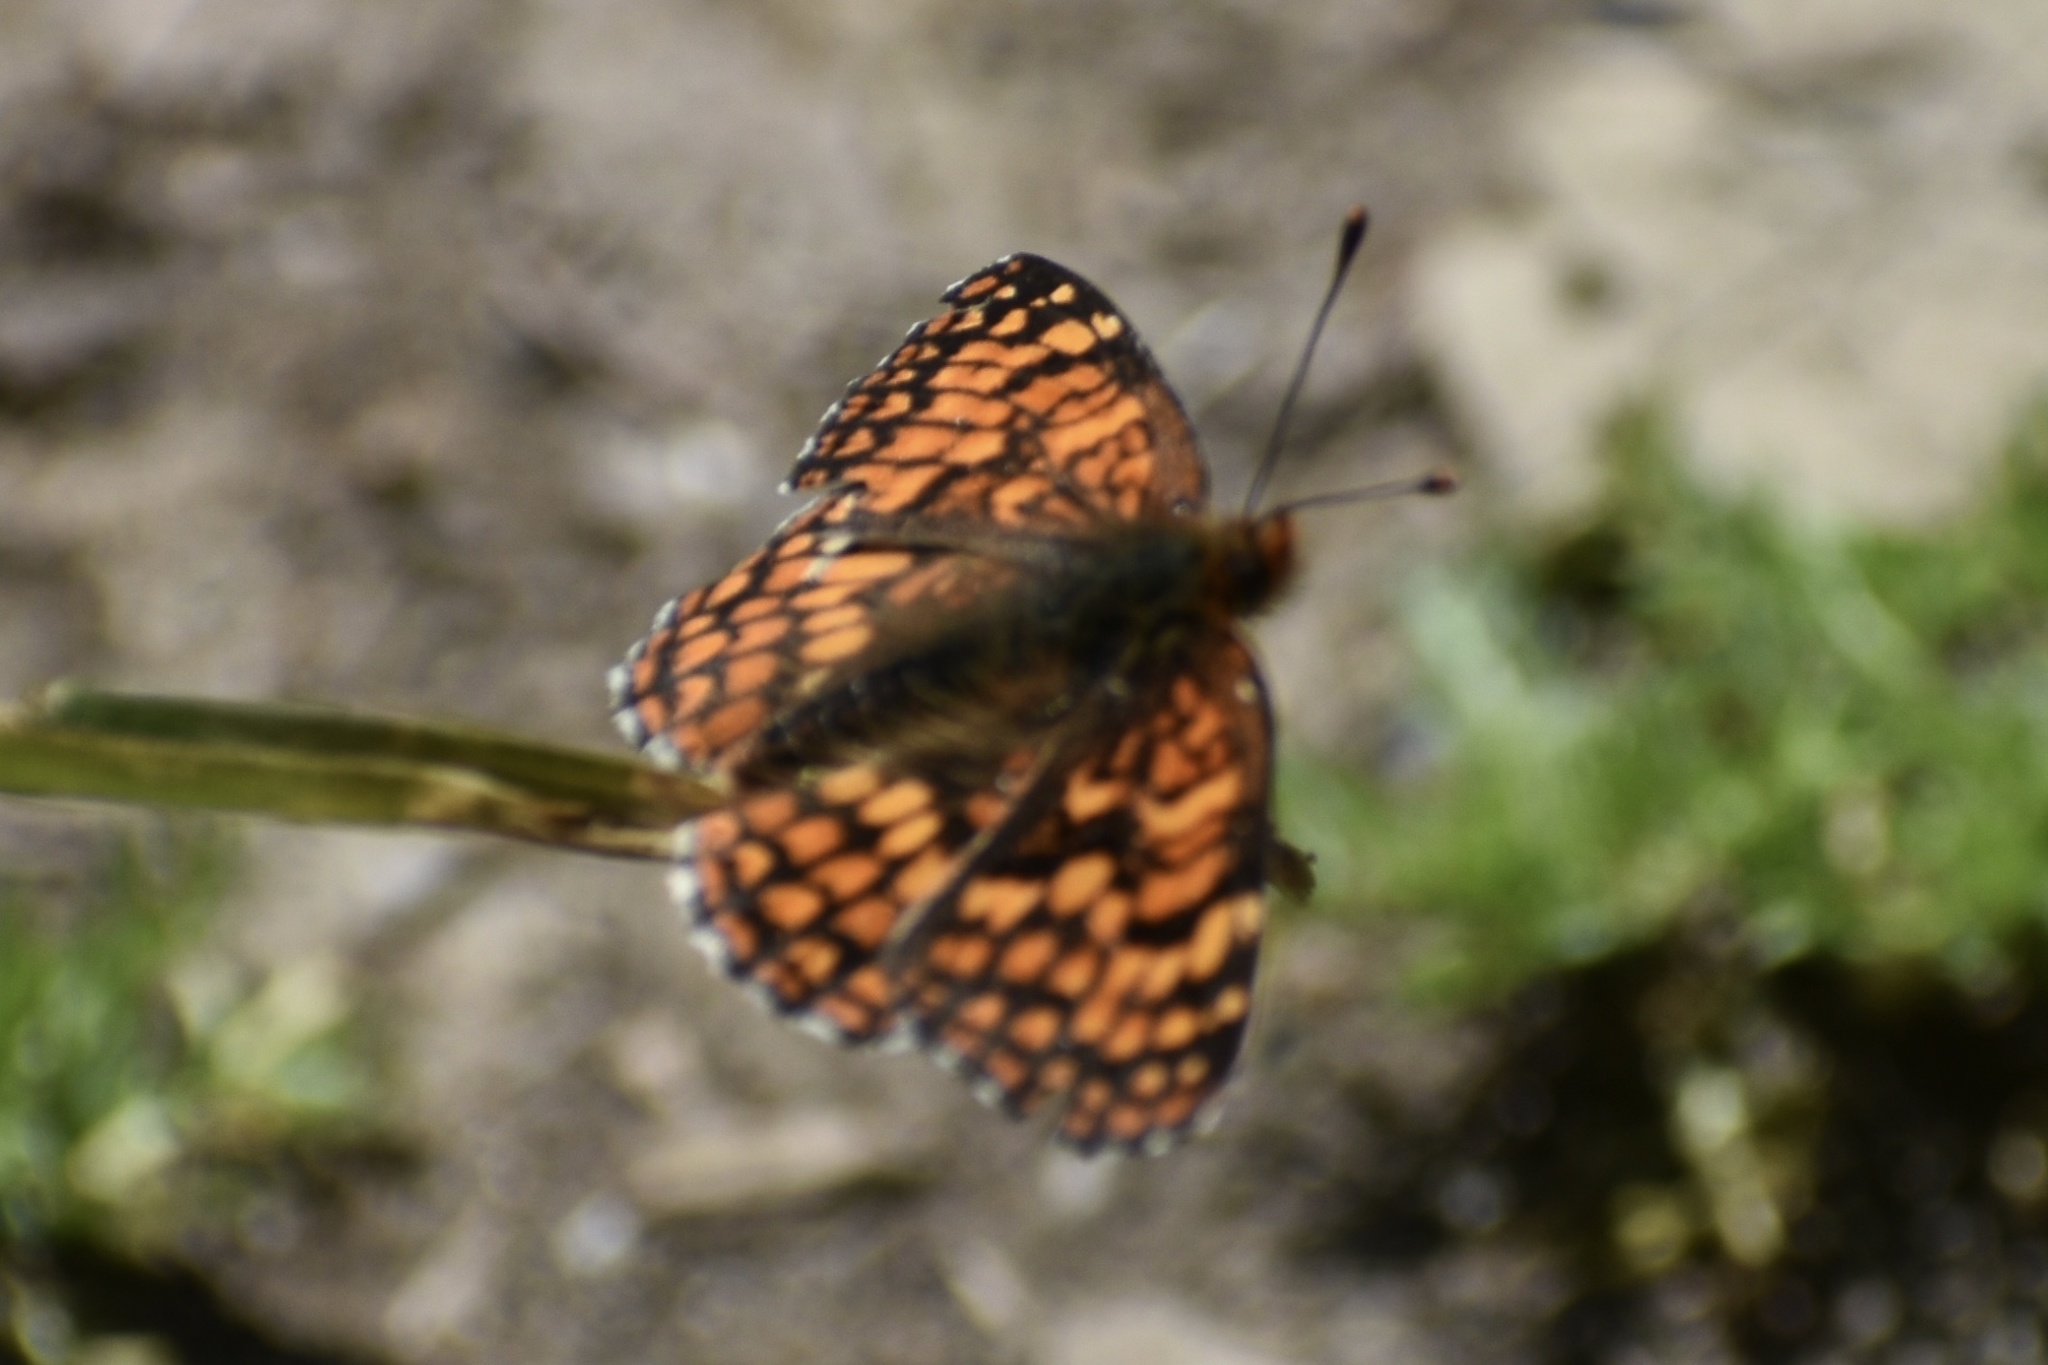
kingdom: Animalia
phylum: Arthropoda
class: Insecta
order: Lepidoptera
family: Nymphalidae
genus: Chlosyne
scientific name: Chlosyne palla
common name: Northern checkerspot
